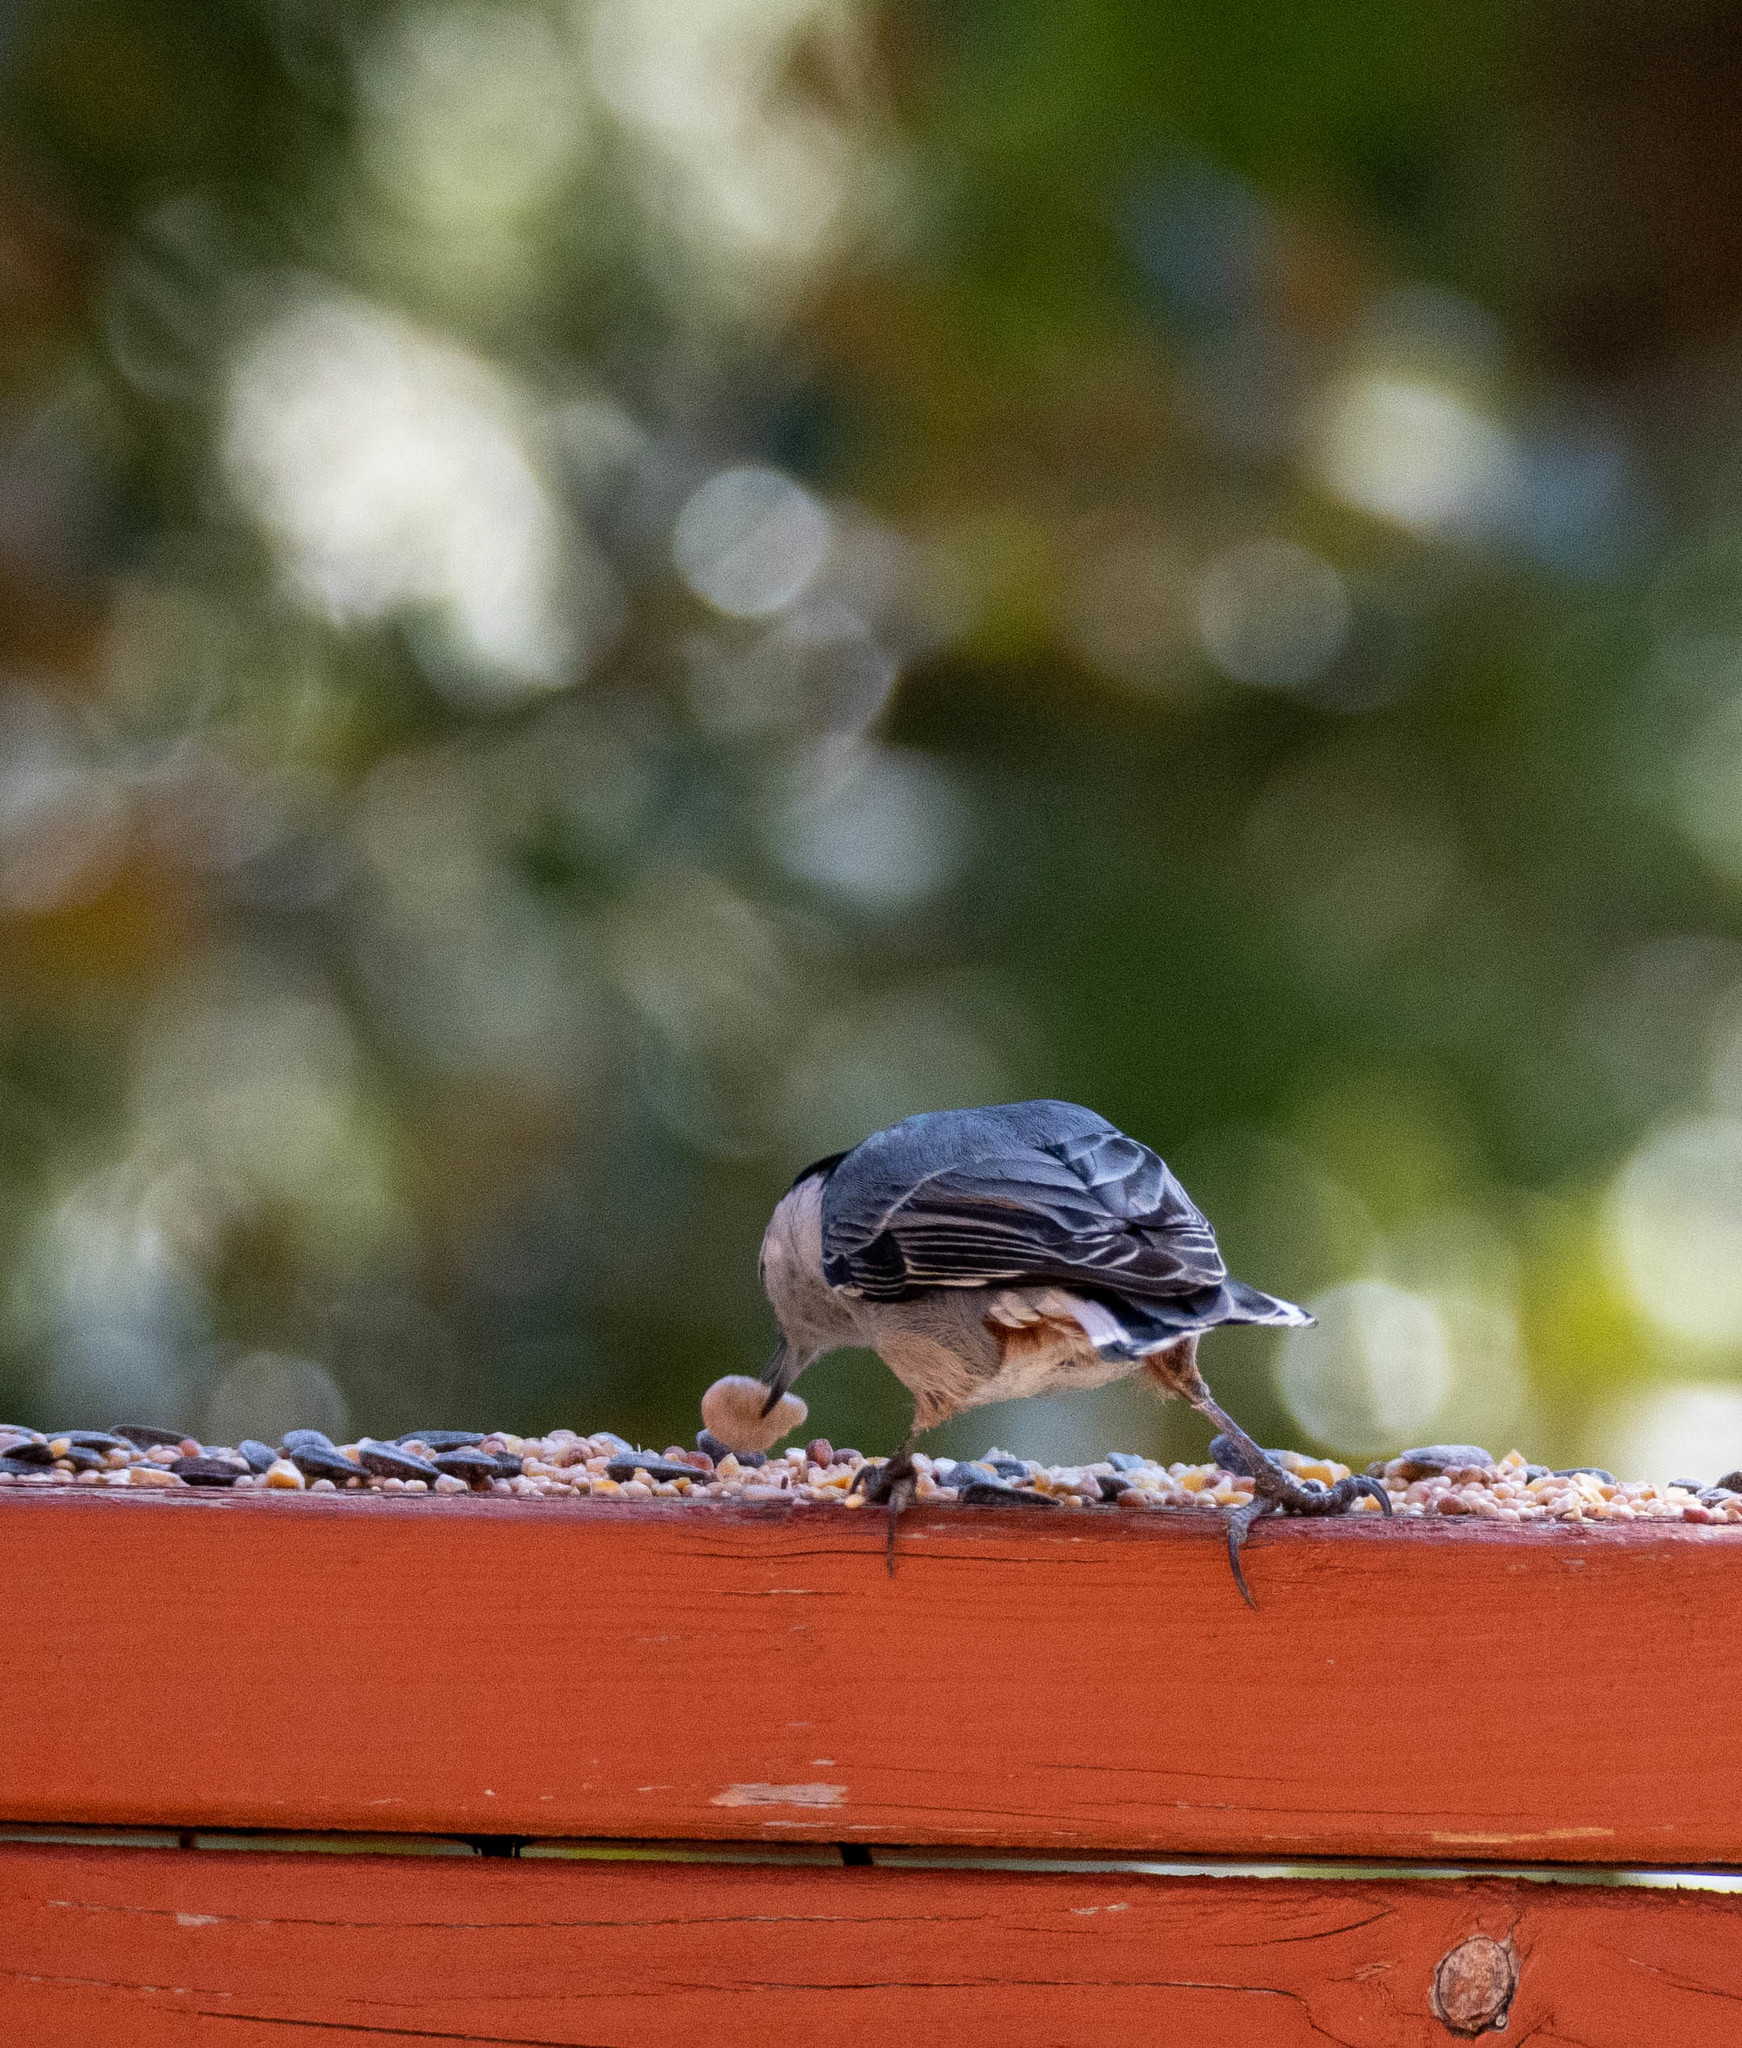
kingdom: Animalia
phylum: Chordata
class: Aves
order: Passeriformes
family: Sittidae
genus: Sitta
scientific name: Sitta carolinensis
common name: White-breasted nuthatch
